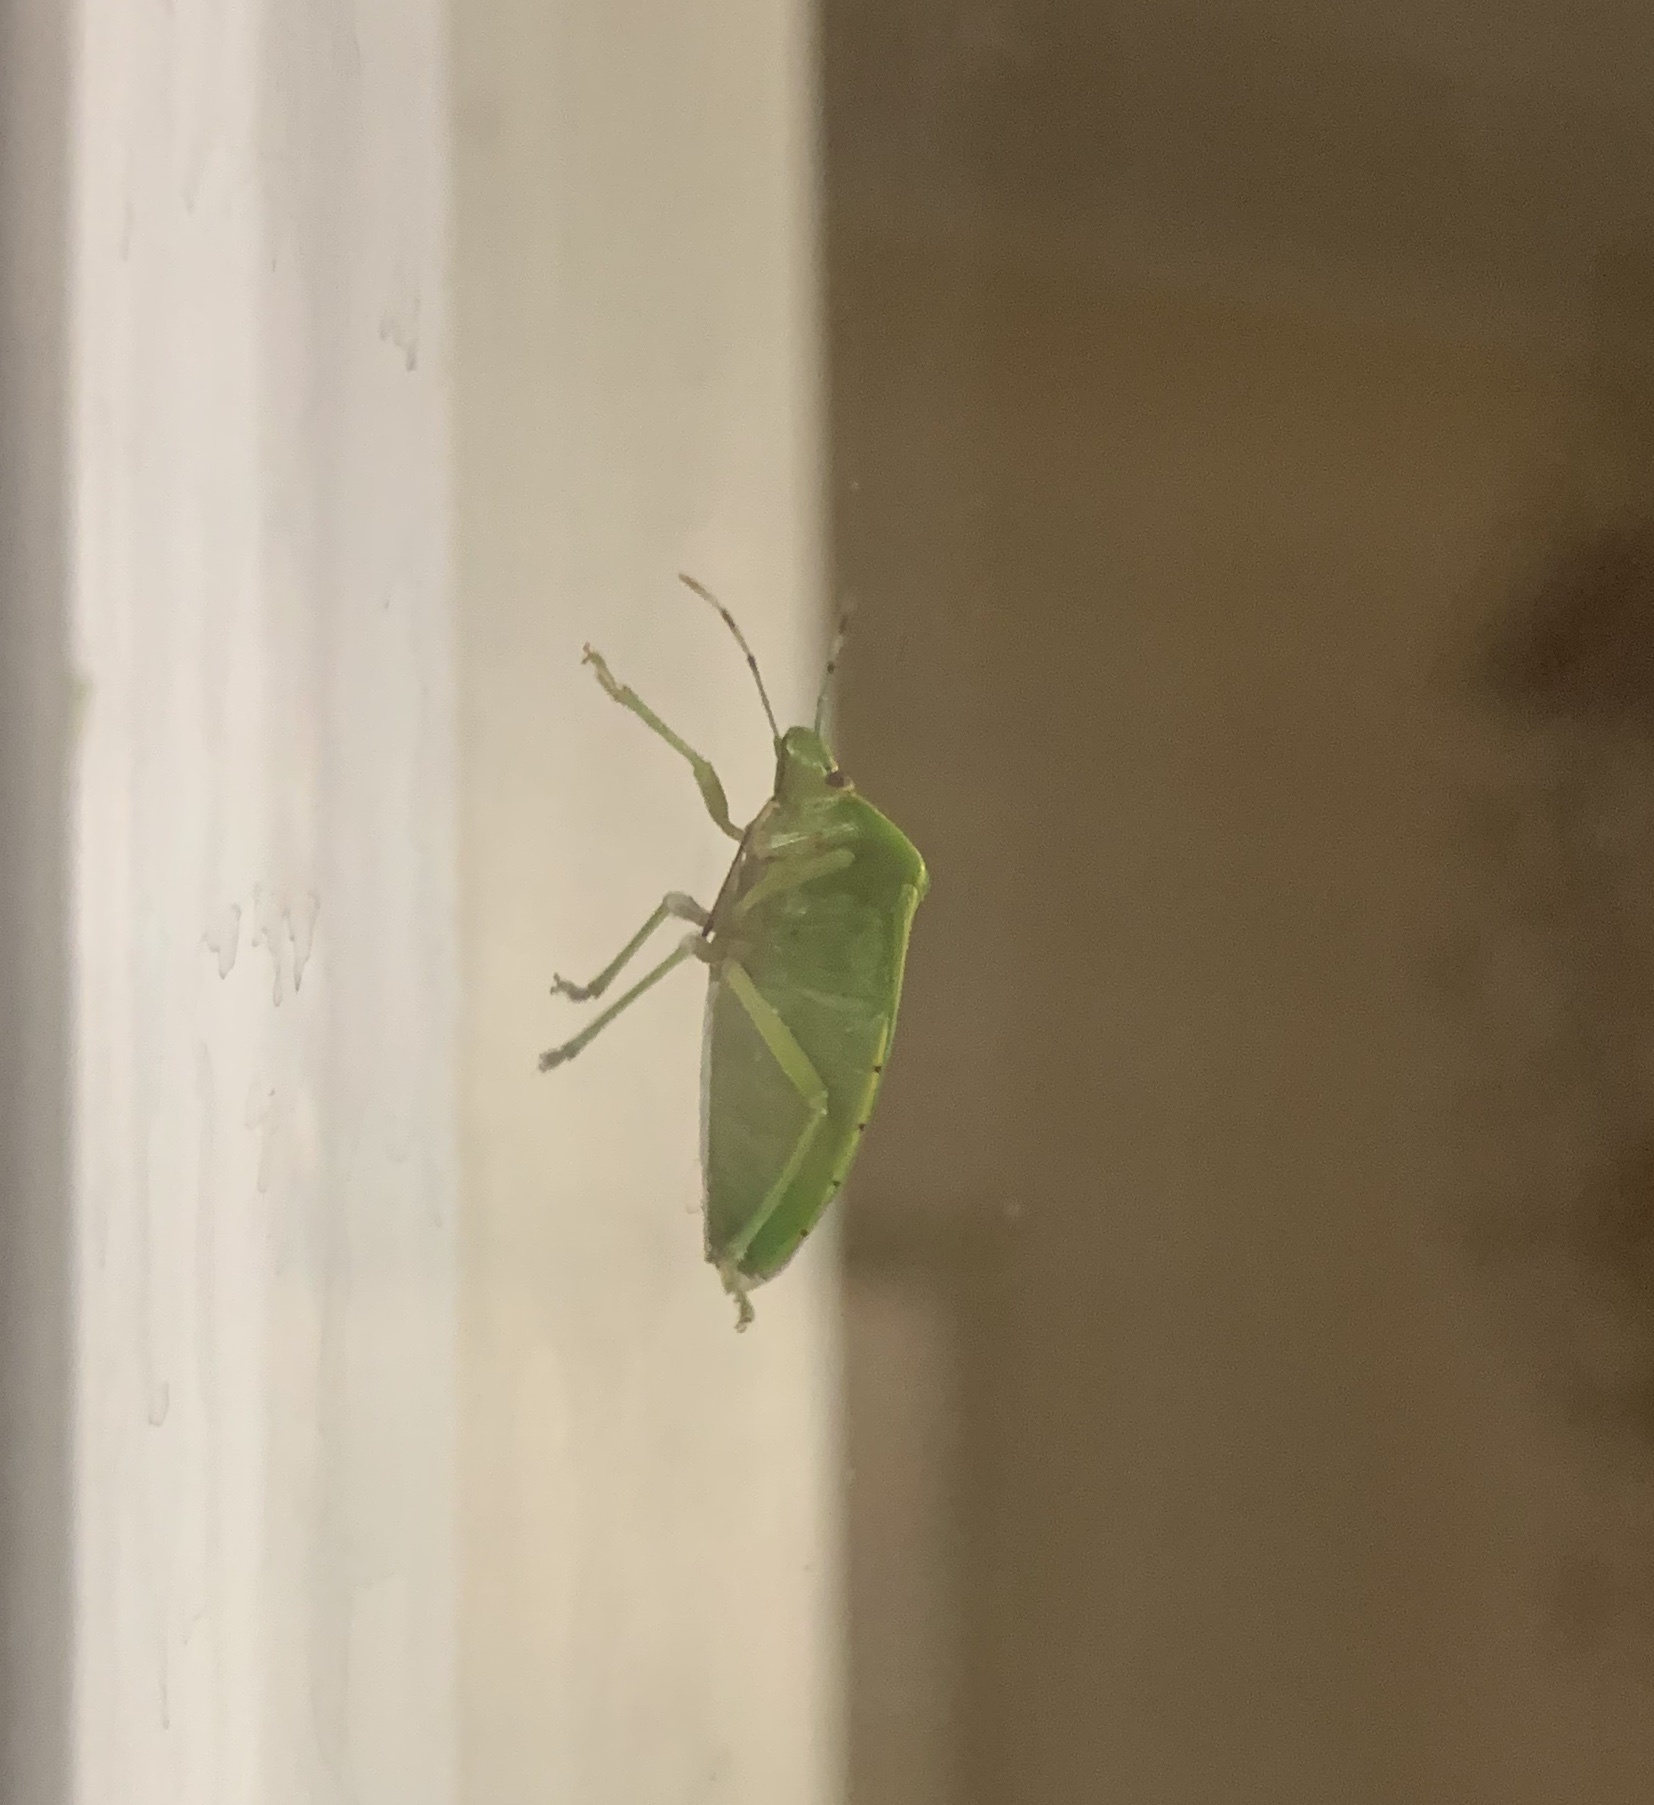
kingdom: Animalia
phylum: Arthropoda
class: Insecta
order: Hemiptera
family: Pentatomidae
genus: Chinavia
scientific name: Chinavia hilaris
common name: Green stink bug
